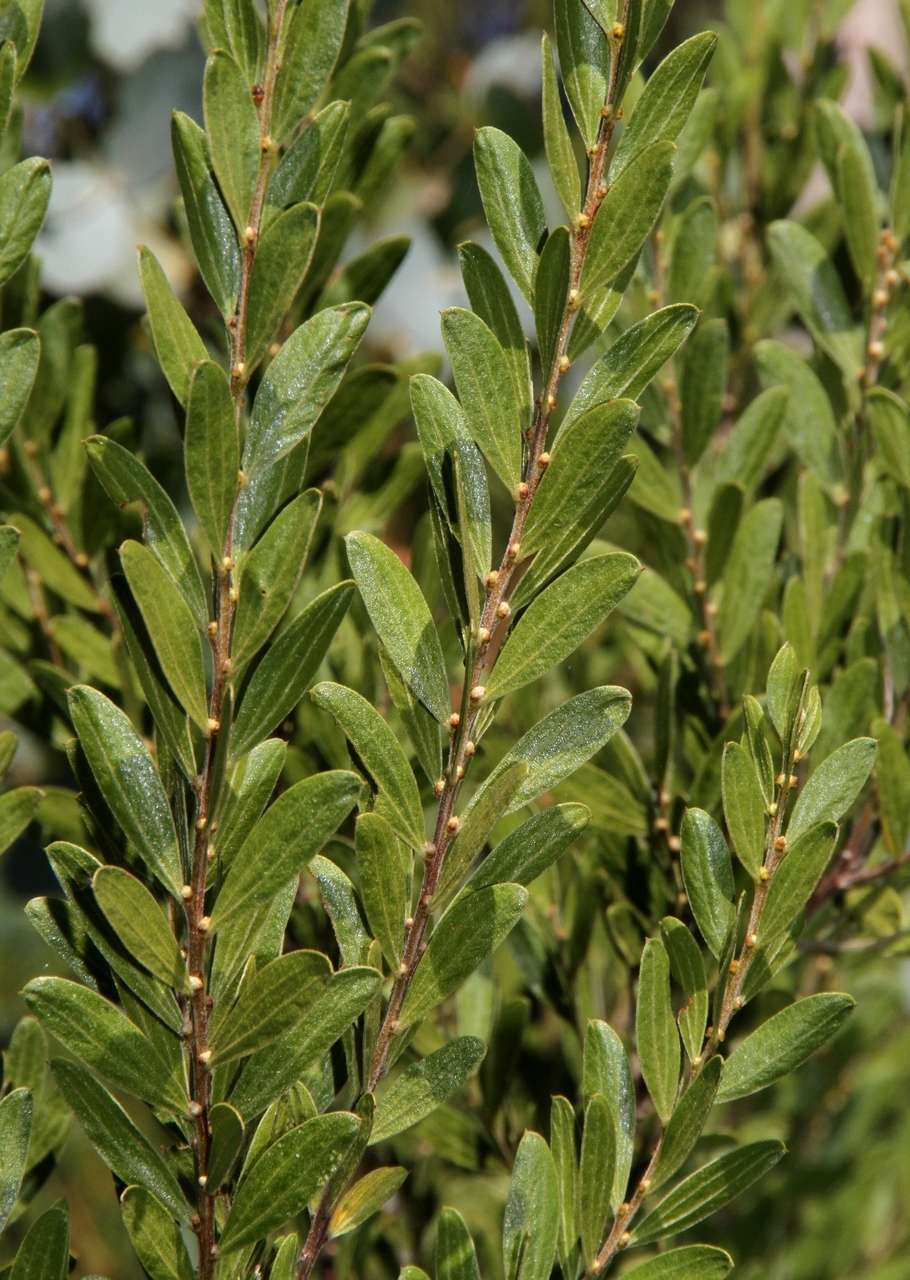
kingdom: Plantae
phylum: Tracheophyta
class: Magnoliopsida
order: Fabales
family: Fabaceae
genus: Acacia
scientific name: Acacia rostriformis
